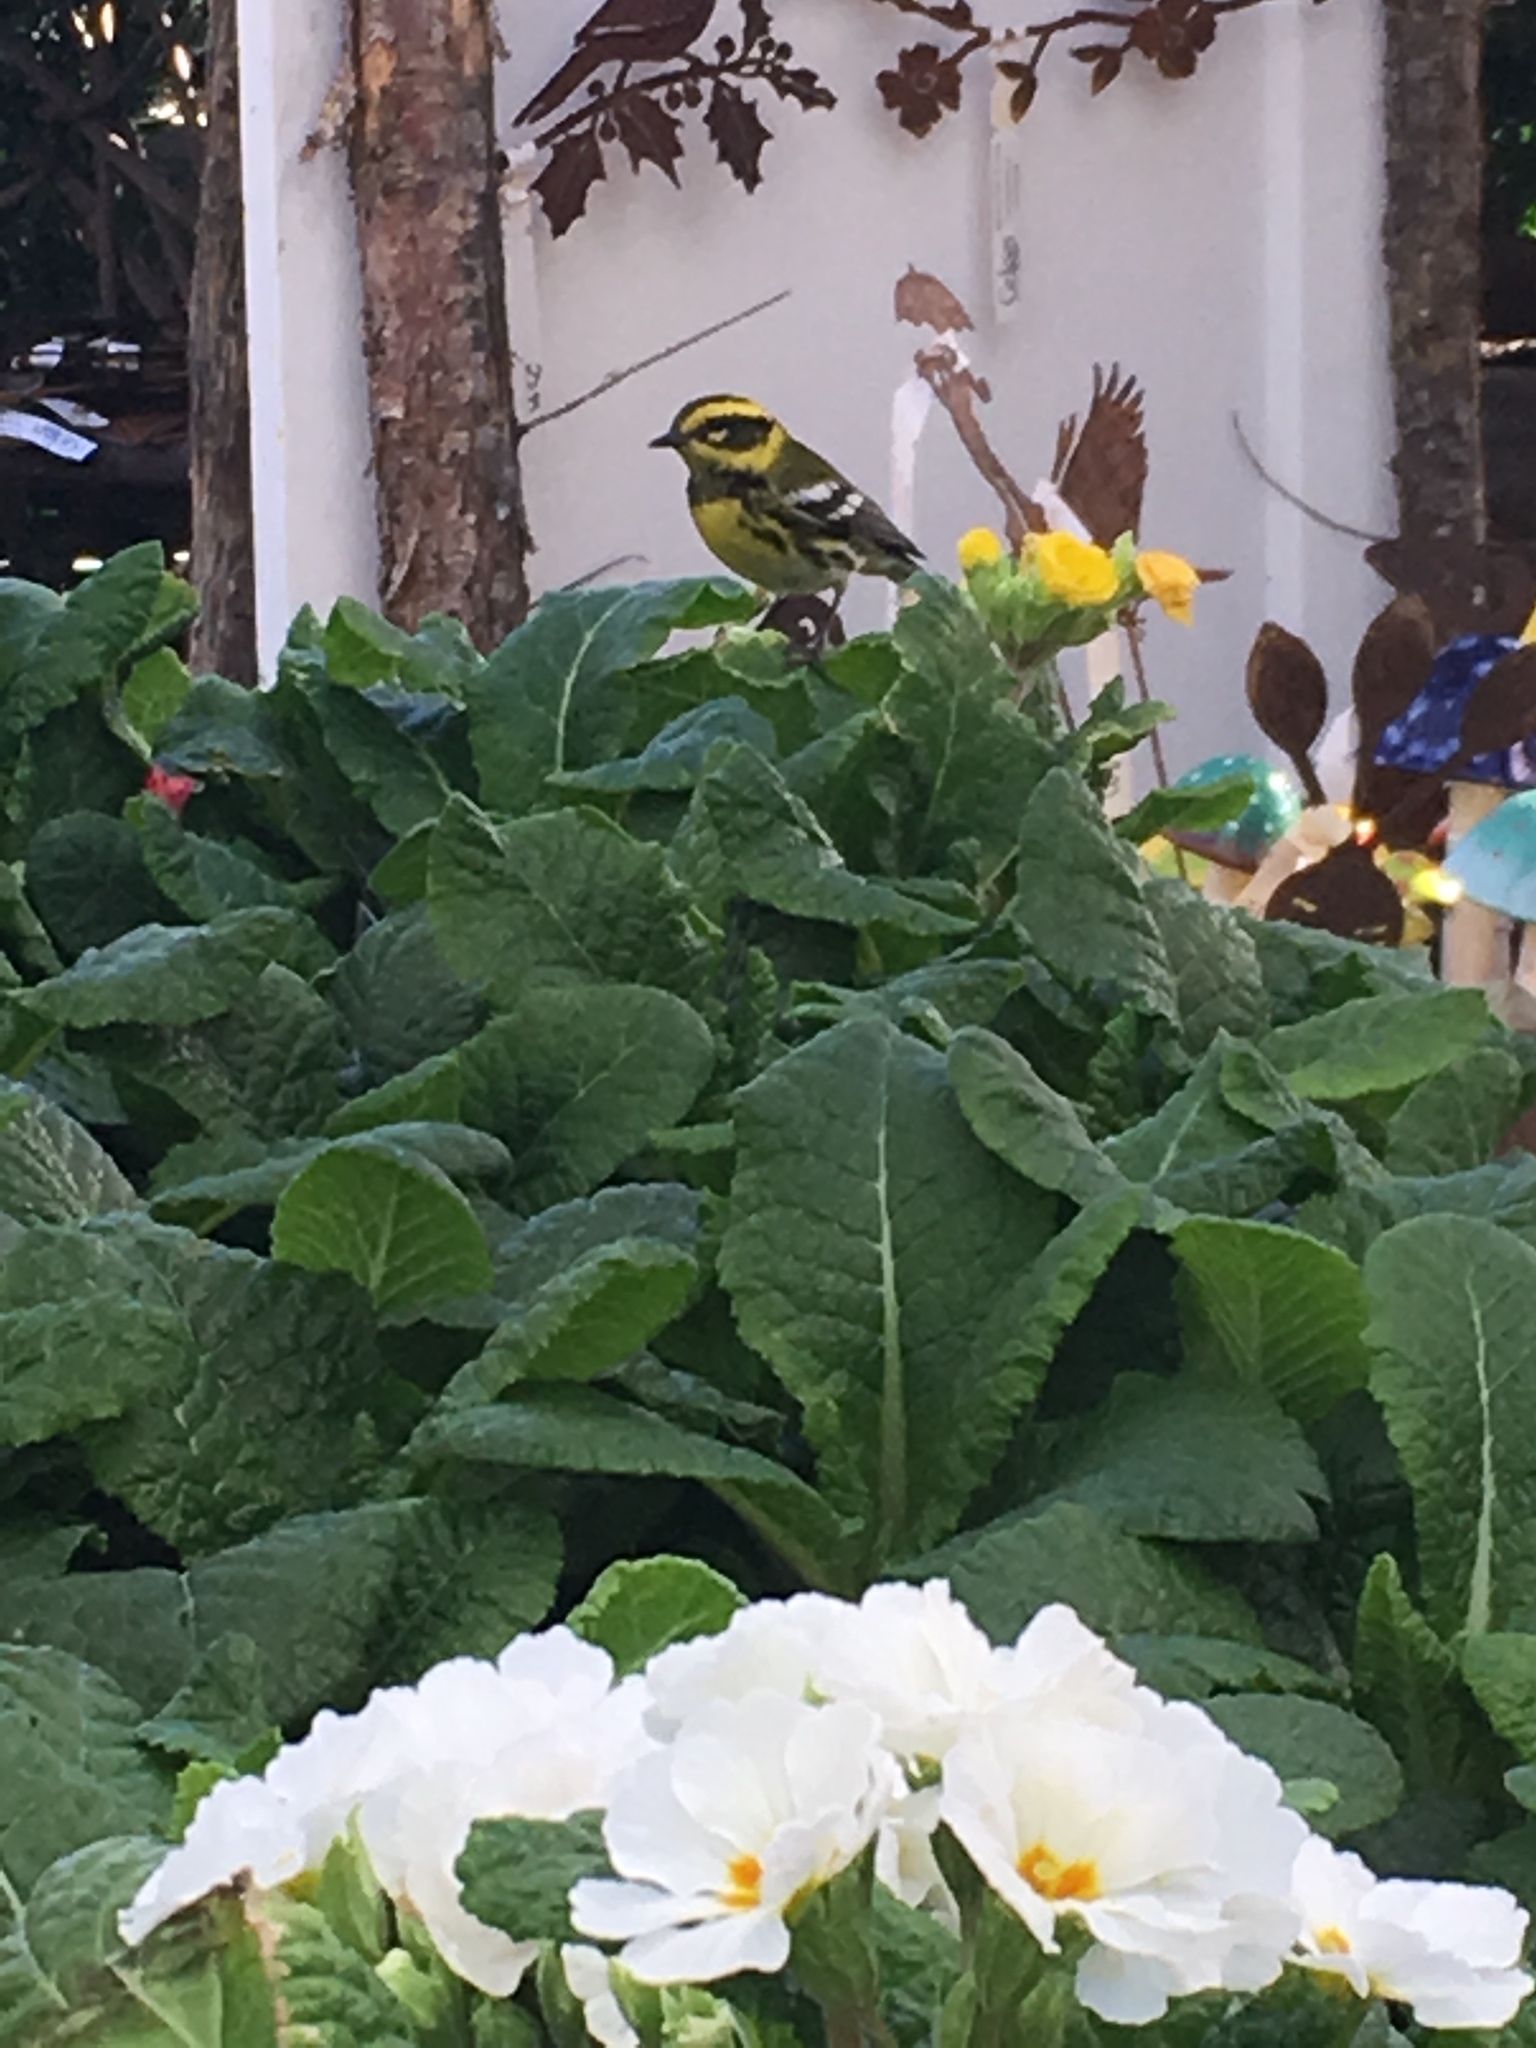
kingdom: Animalia
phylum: Chordata
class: Aves
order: Passeriformes
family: Parulidae
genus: Setophaga
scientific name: Setophaga townsendi
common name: Townsend's warbler
